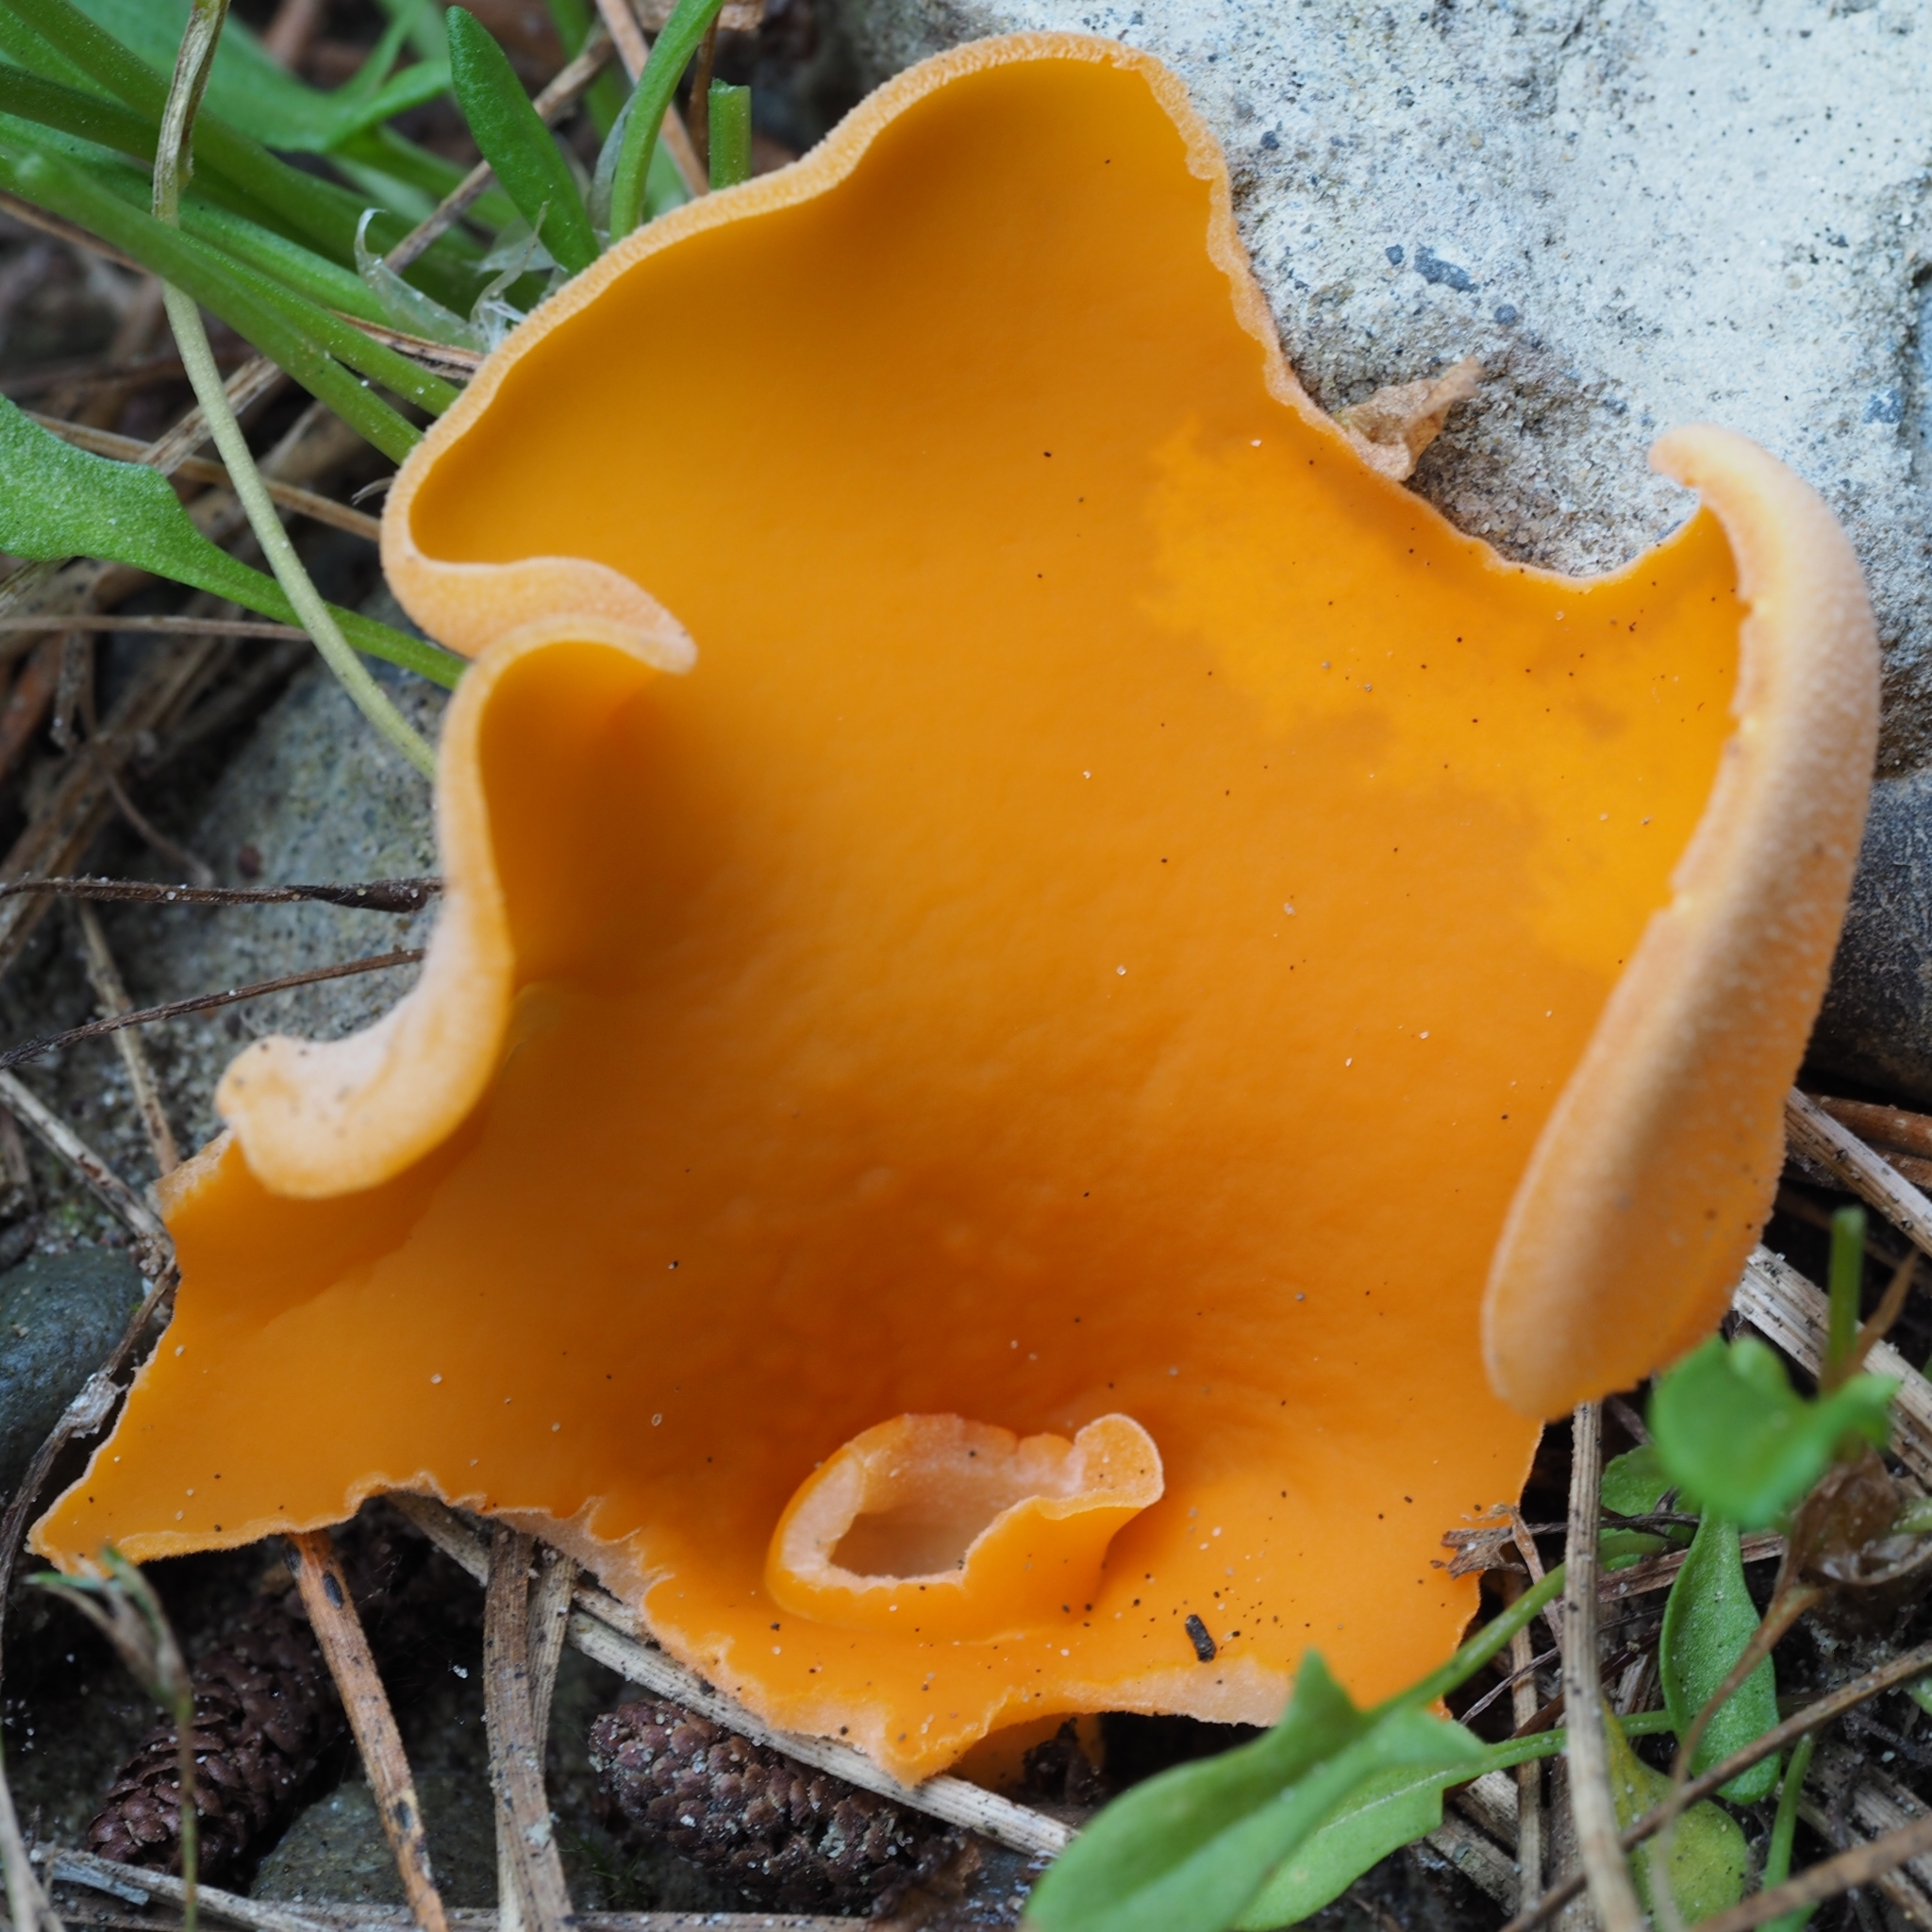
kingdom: Fungi
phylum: Ascomycota
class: Pezizomycetes
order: Pezizales
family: Pyronemataceae
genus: Aleuria
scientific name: Aleuria aurantia
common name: Orange peel fungus
